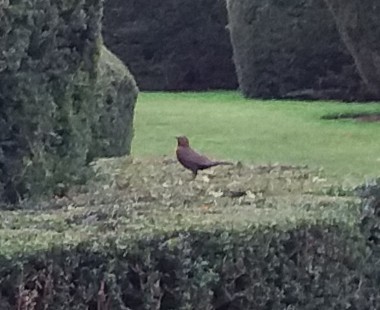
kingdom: Animalia
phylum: Chordata
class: Aves
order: Passeriformes
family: Turdidae
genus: Turdus
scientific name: Turdus merula
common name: Common blackbird
